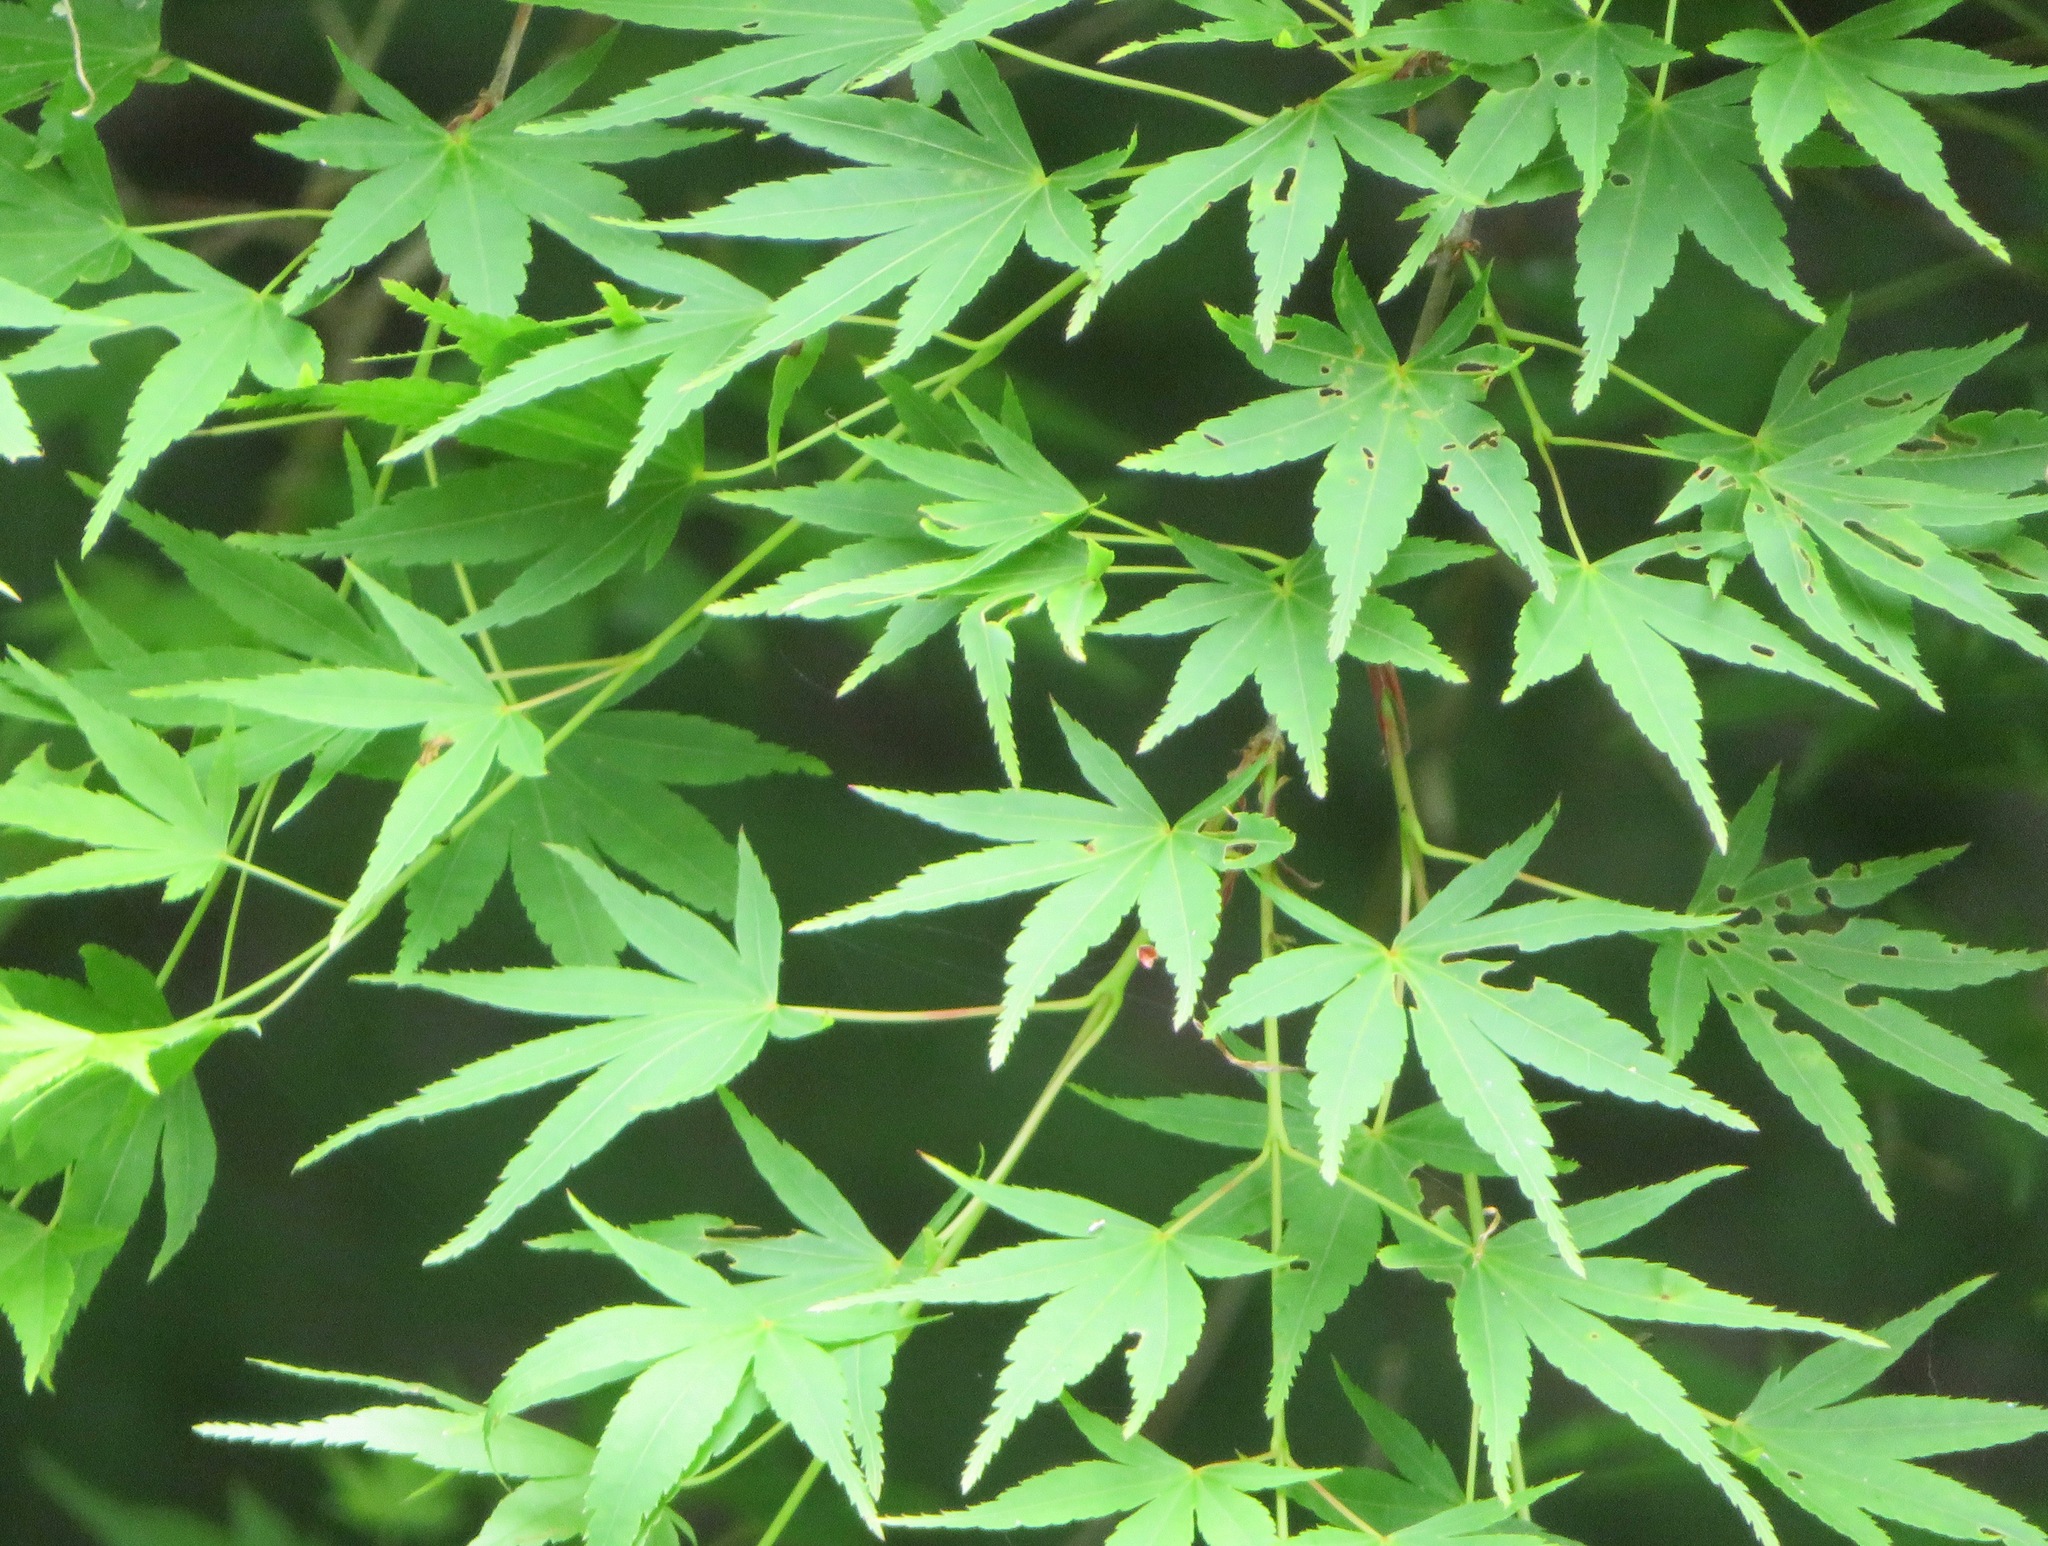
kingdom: Plantae
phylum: Tracheophyta
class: Magnoliopsida
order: Sapindales
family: Sapindaceae
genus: Acer
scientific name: Acer palmatum
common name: Japanese maple
